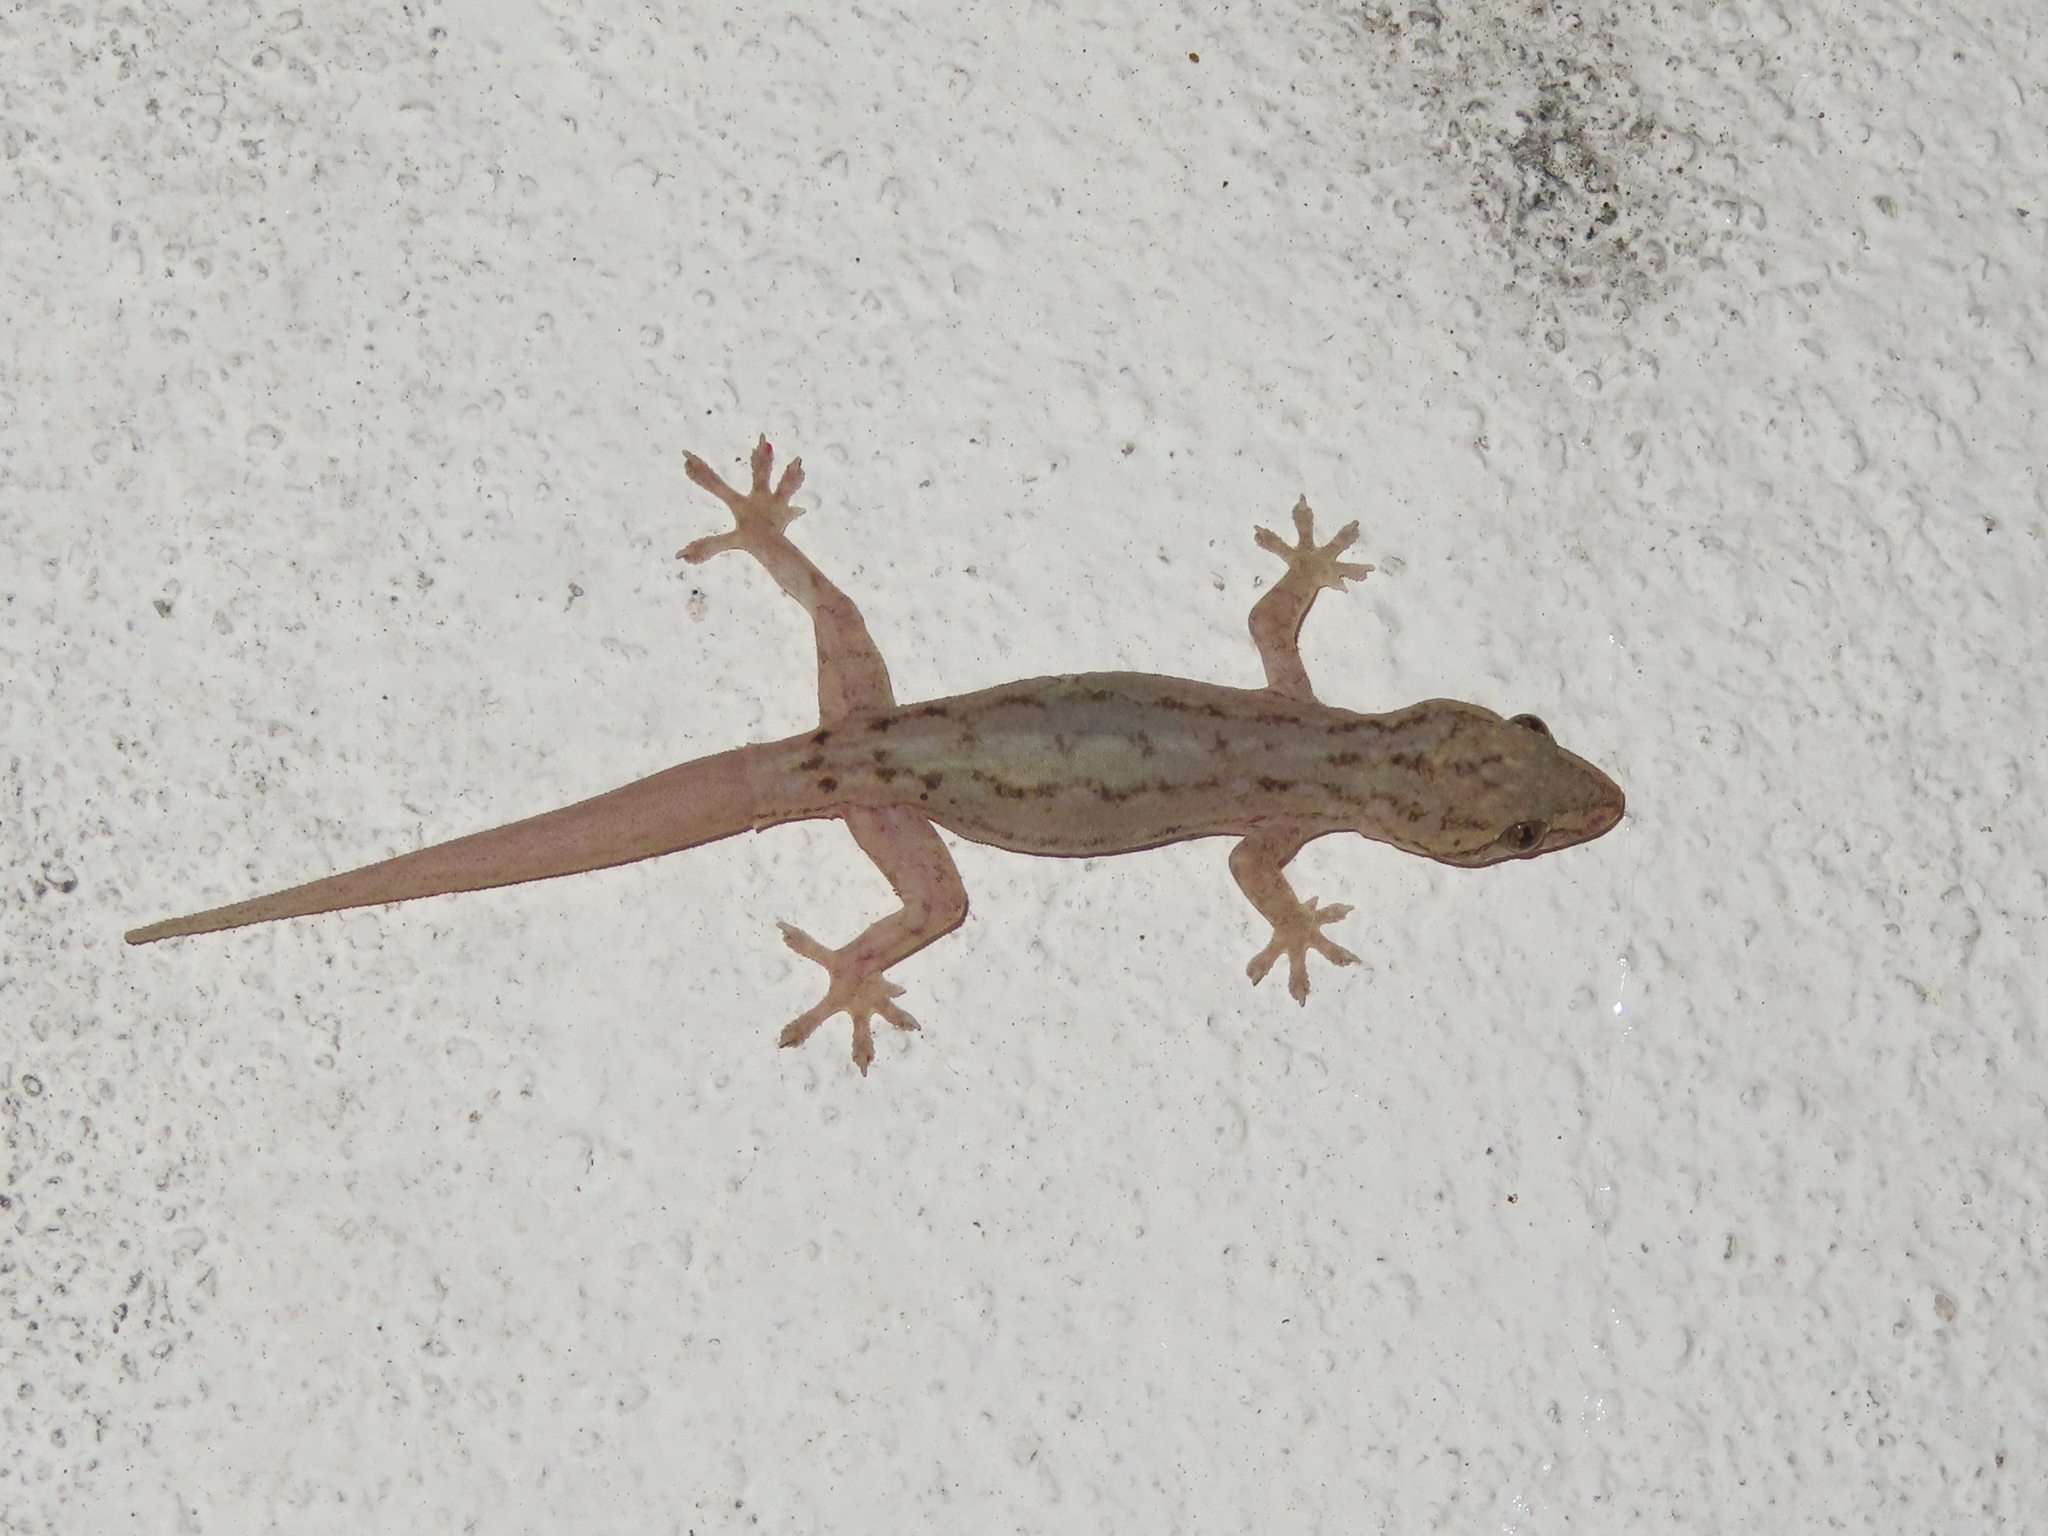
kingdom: Animalia
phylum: Chordata
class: Squamata
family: Gekkonidae
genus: Hemidactylus
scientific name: Hemidactylus frenatus
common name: Common house gecko
